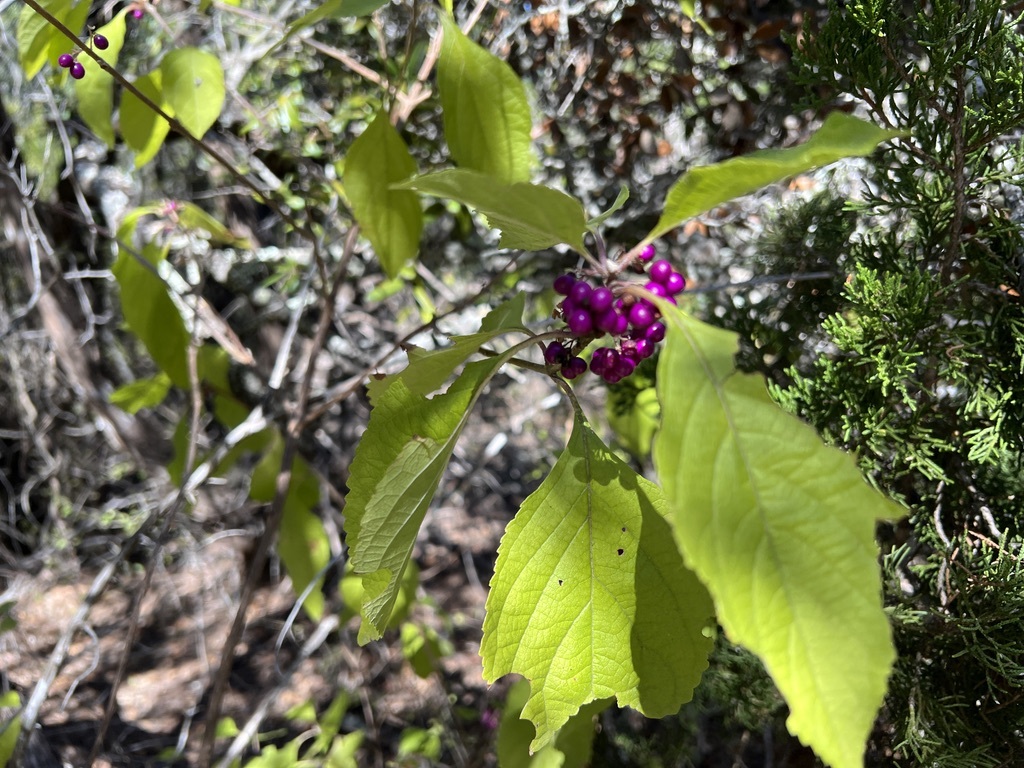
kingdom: Plantae
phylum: Tracheophyta
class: Magnoliopsida
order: Lamiales
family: Lamiaceae
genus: Callicarpa
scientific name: Callicarpa americana
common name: American beautyberry
